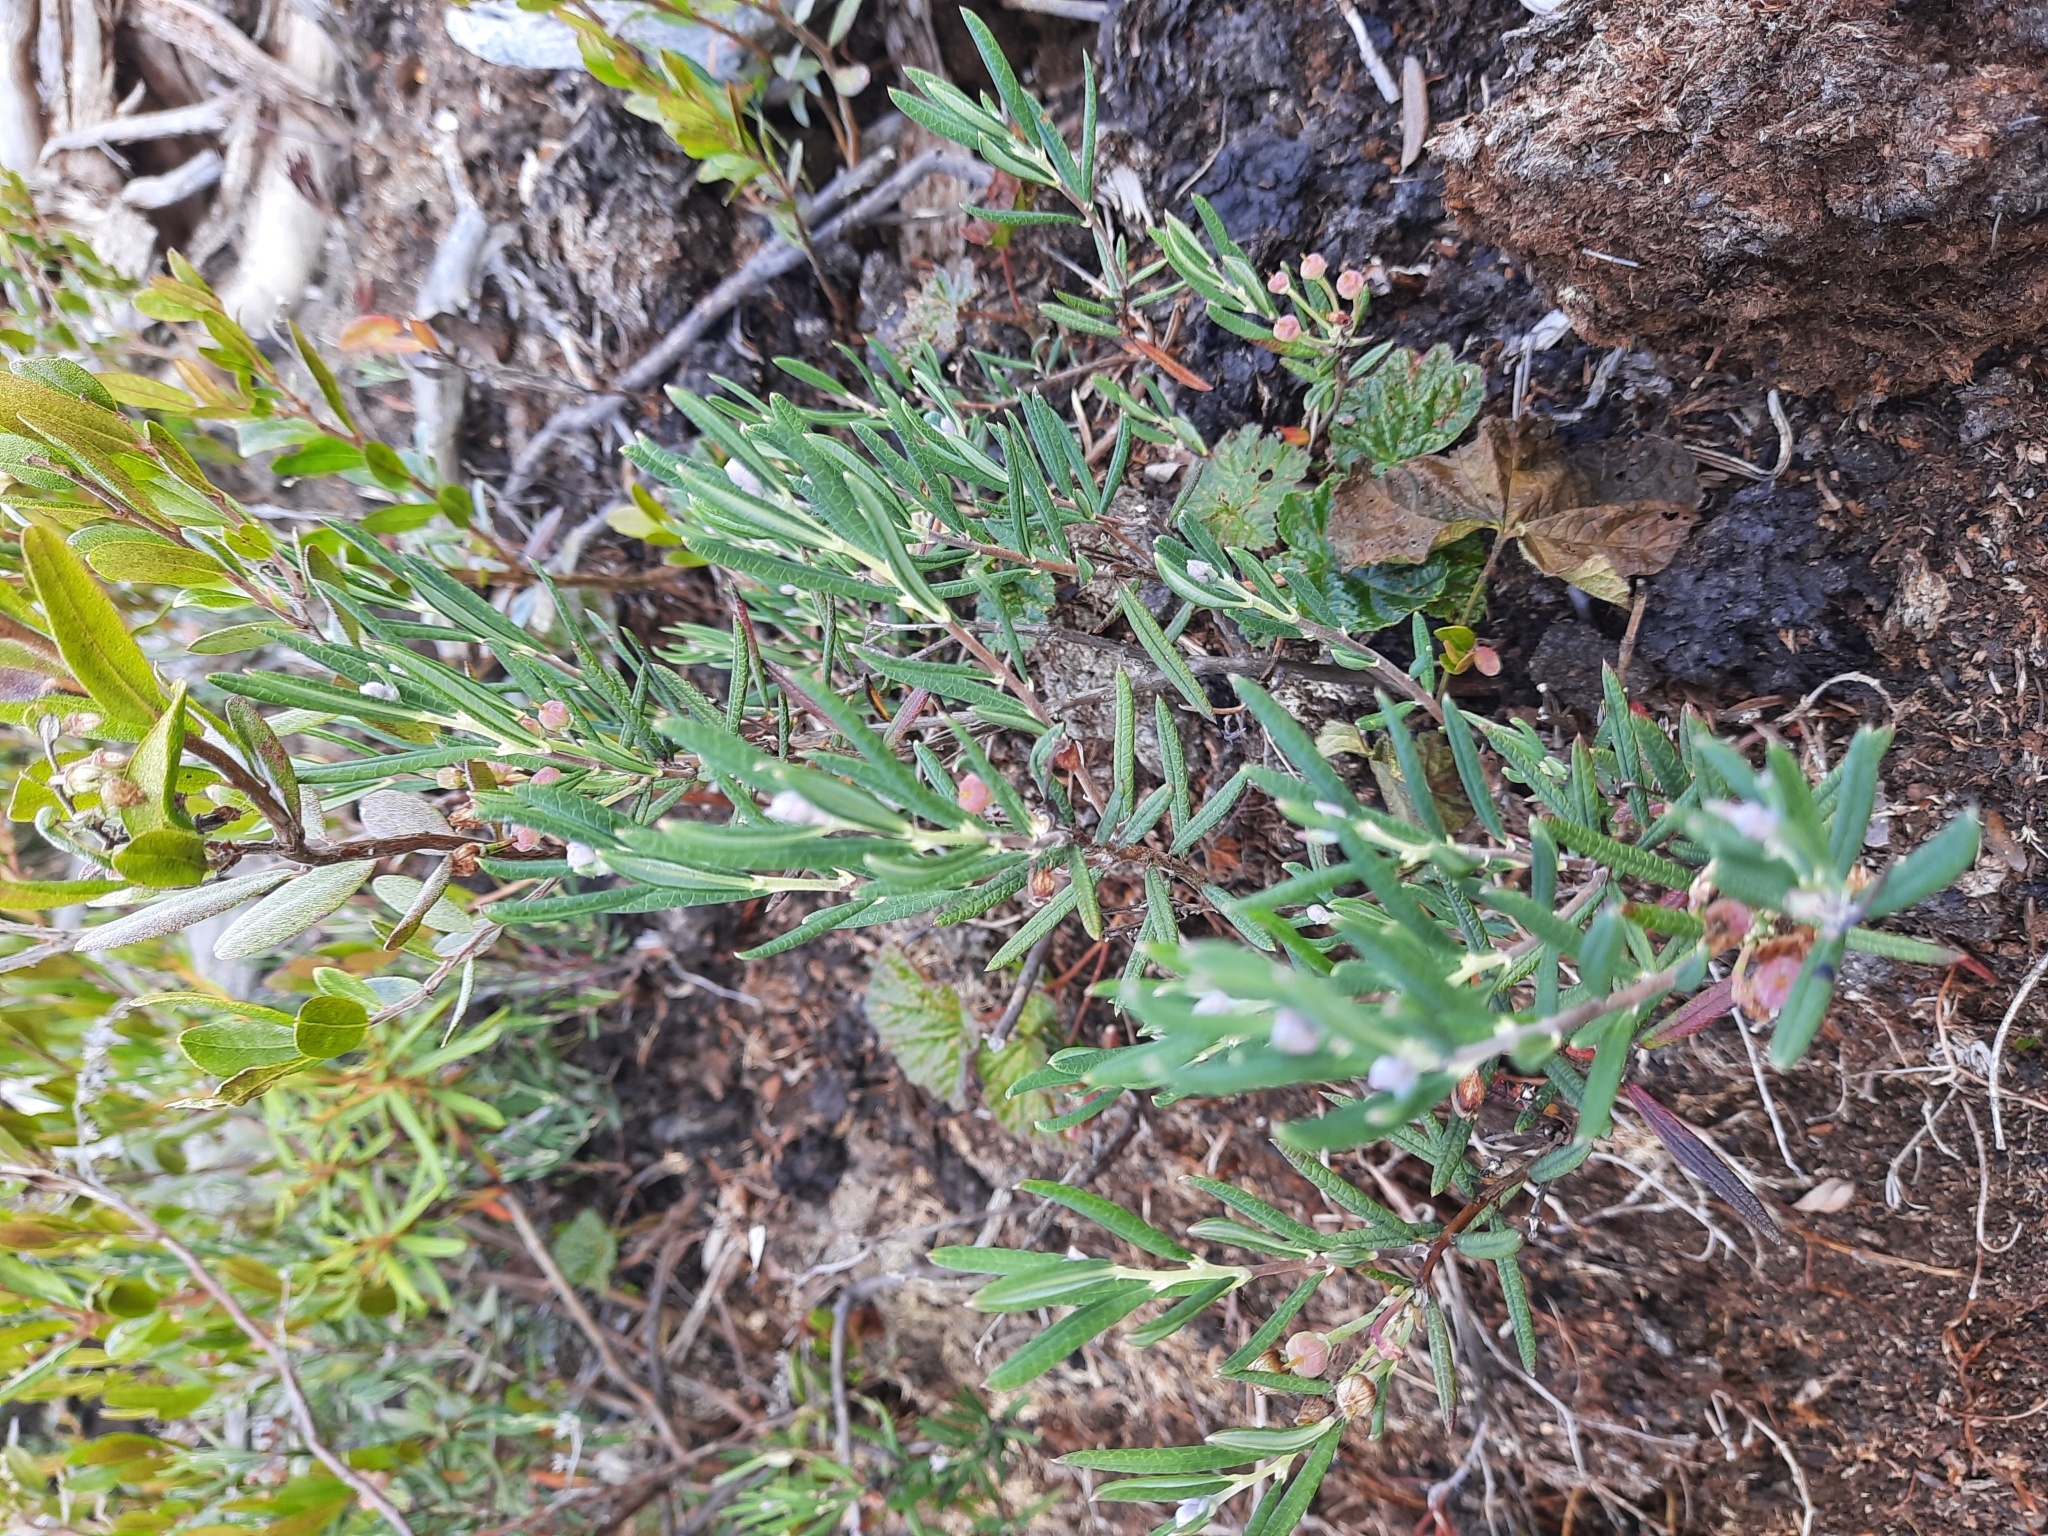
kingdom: Plantae
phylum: Tracheophyta
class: Magnoliopsida
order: Ericales
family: Ericaceae
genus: Andromeda
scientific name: Andromeda polifolia
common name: Bog-rosemary
